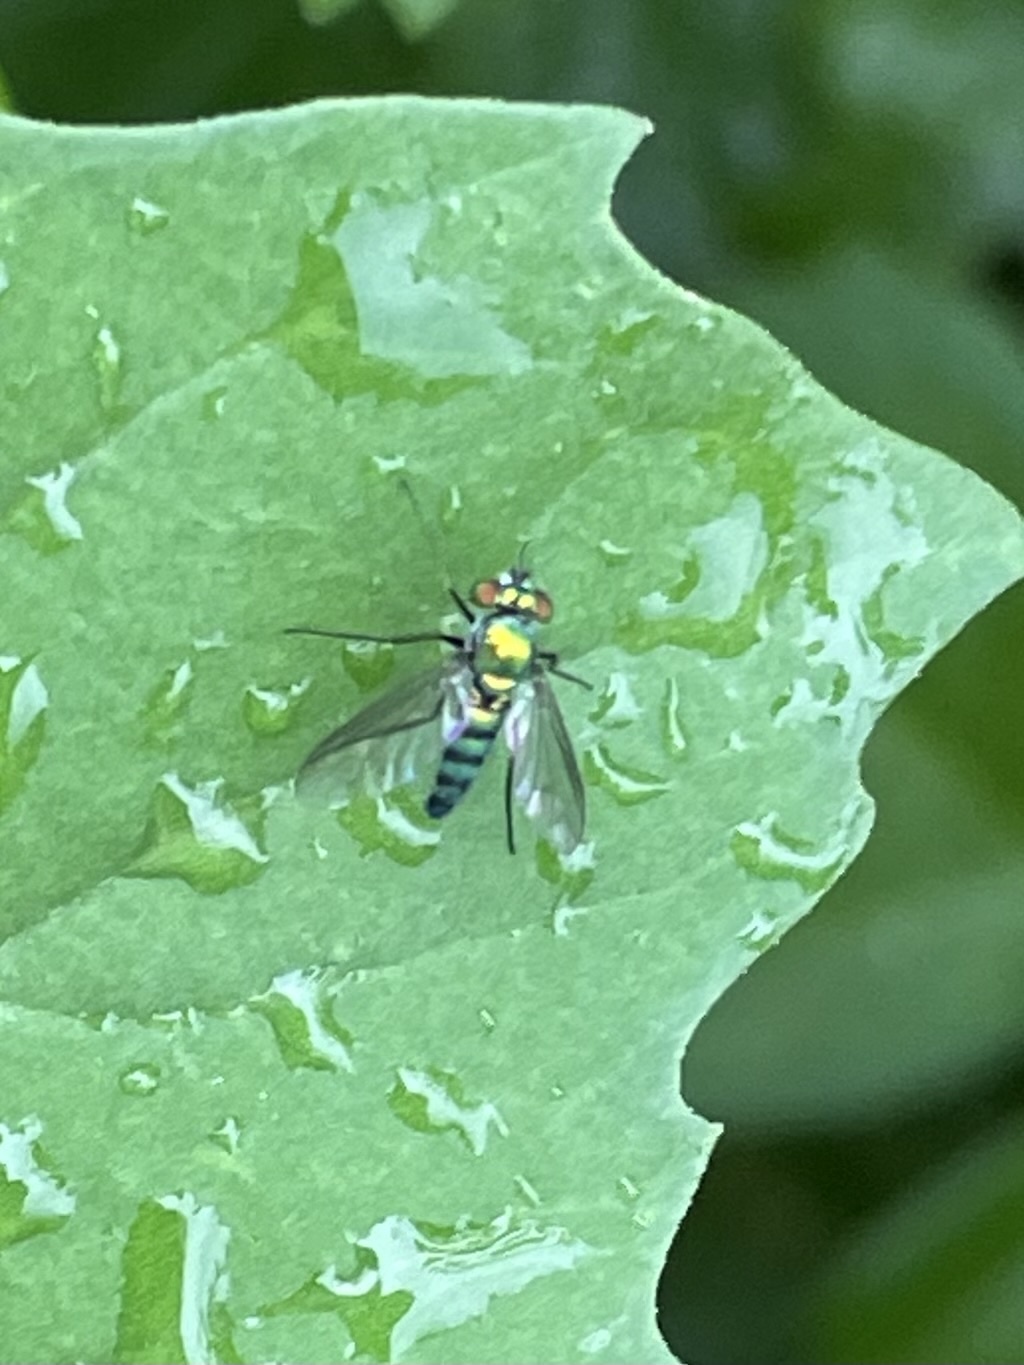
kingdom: Animalia
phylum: Arthropoda
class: Insecta
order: Diptera
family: Dolichopodidae
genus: Condylostylus
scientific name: Condylostylus longicornis
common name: Long-legged fly
